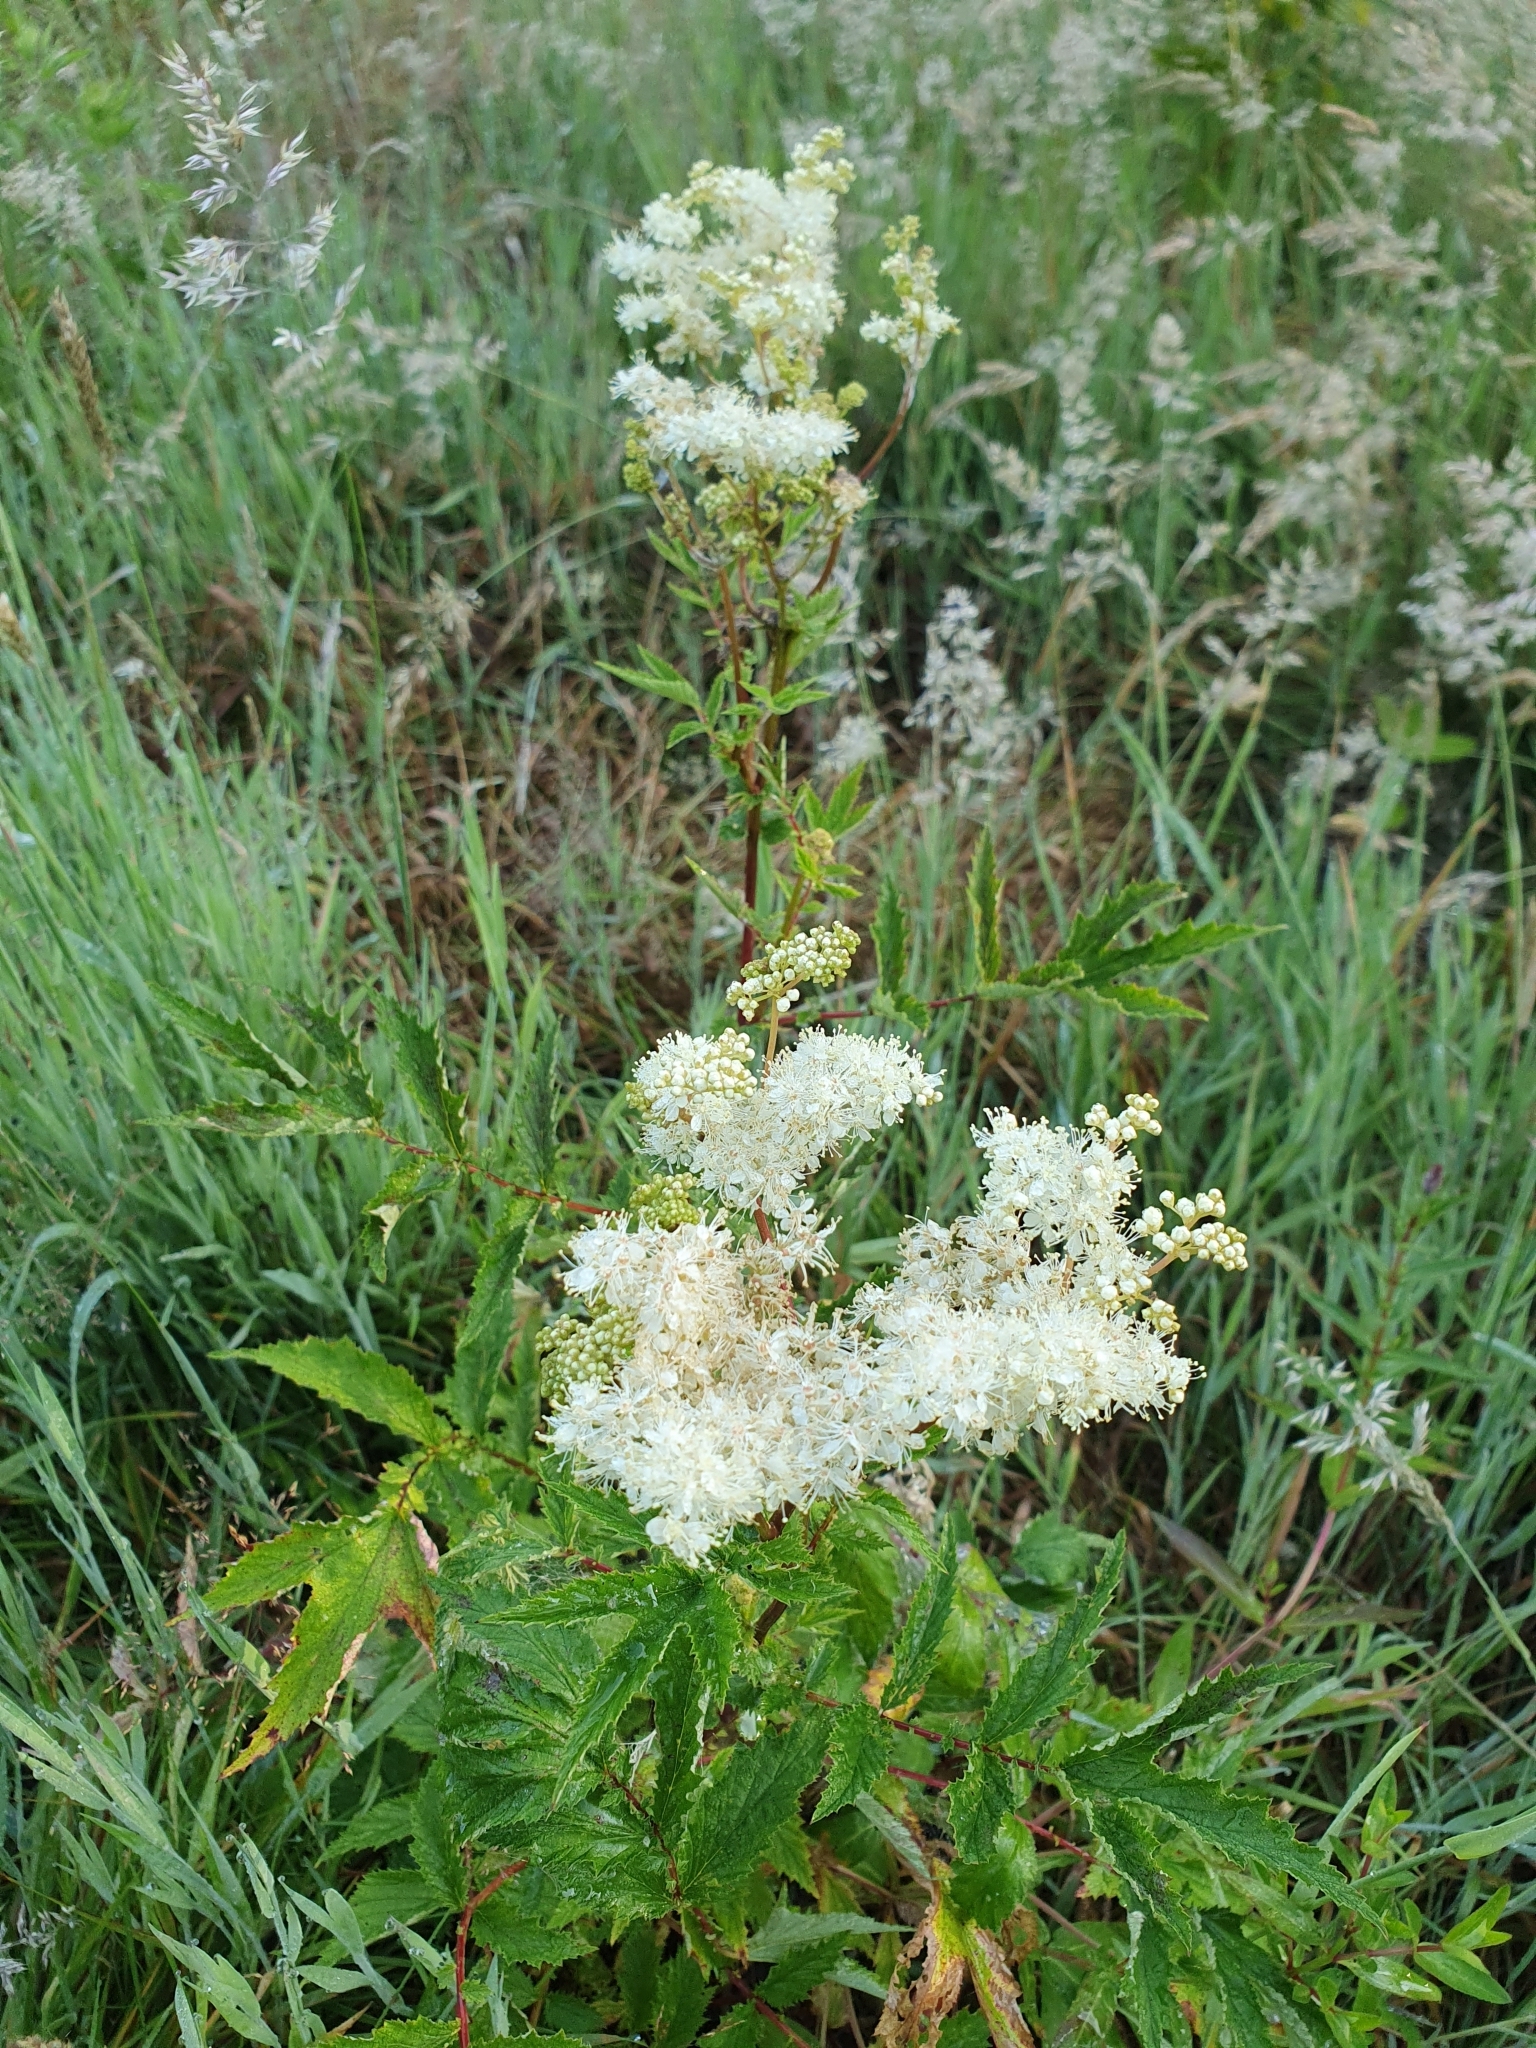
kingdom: Plantae
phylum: Tracheophyta
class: Magnoliopsida
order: Rosales
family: Rosaceae
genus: Filipendula
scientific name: Filipendula ulmaria
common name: Meadowsweet
